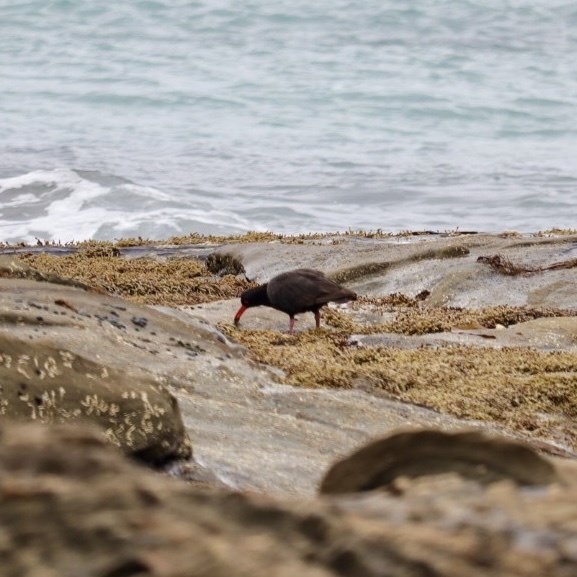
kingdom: Animalia
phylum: Chordata
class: Aves
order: Charadriiformes
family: Haematopodidae
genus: Haematopus
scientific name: Haematopus fuliginosus
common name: Sooty oystercatcher
